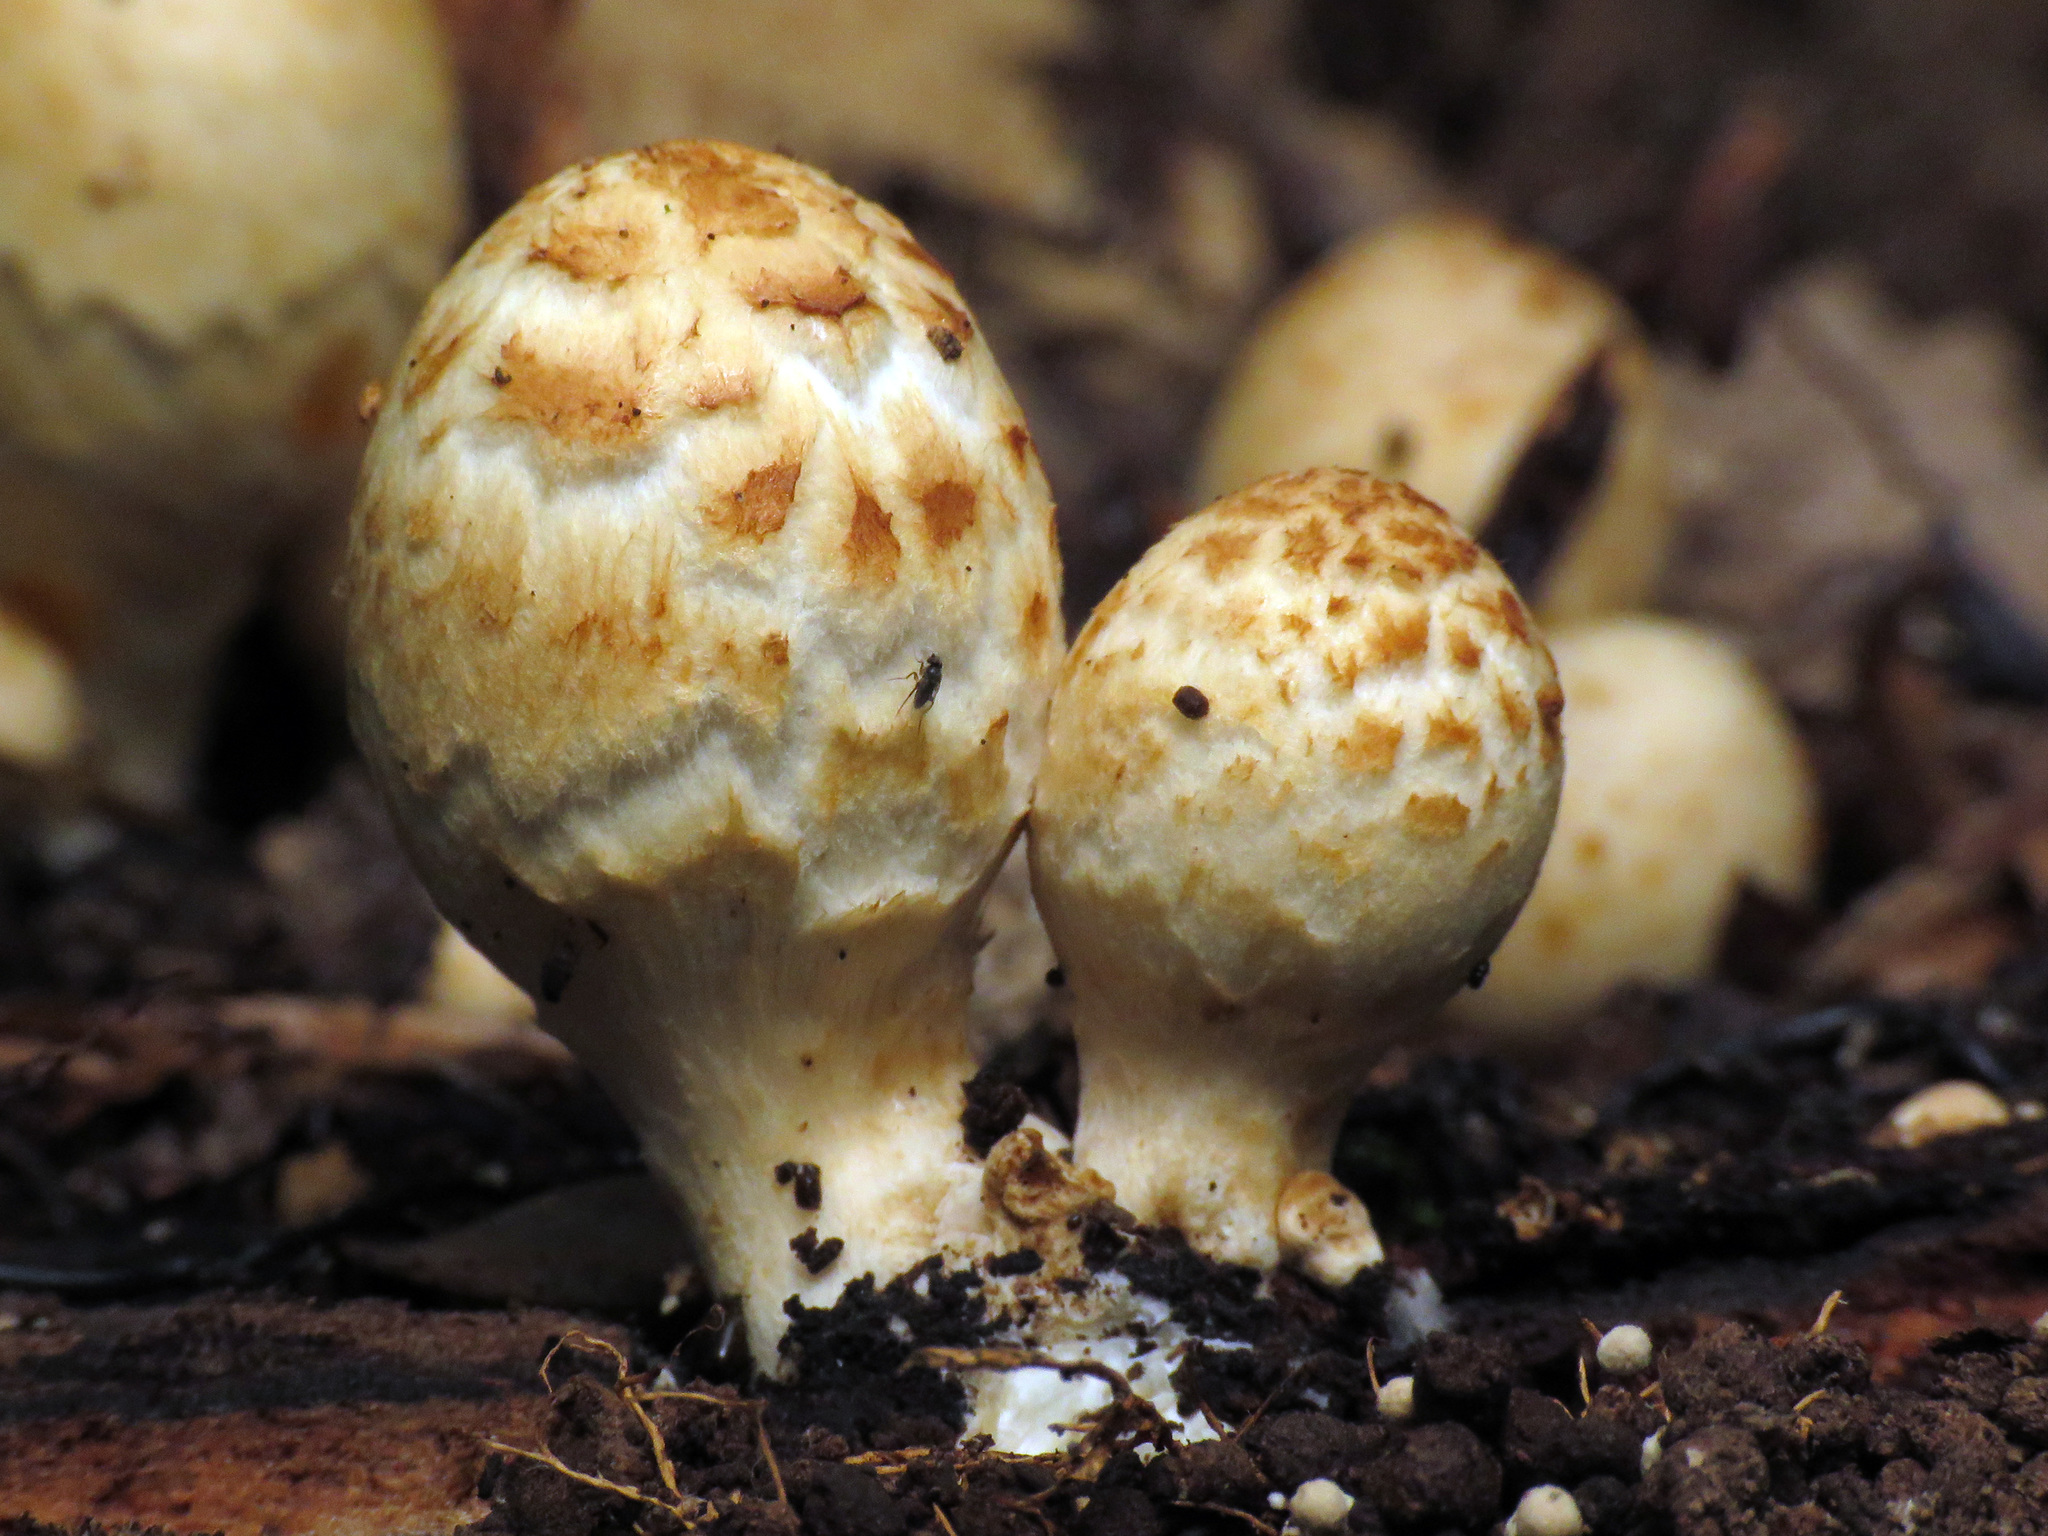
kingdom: Fungi
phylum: Basidiomycota
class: Agaricomycetes
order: Agaricales
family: Psathyrellaceae
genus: Coprinopsis
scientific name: Coprinopsis variegata
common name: Scaly ink cap
